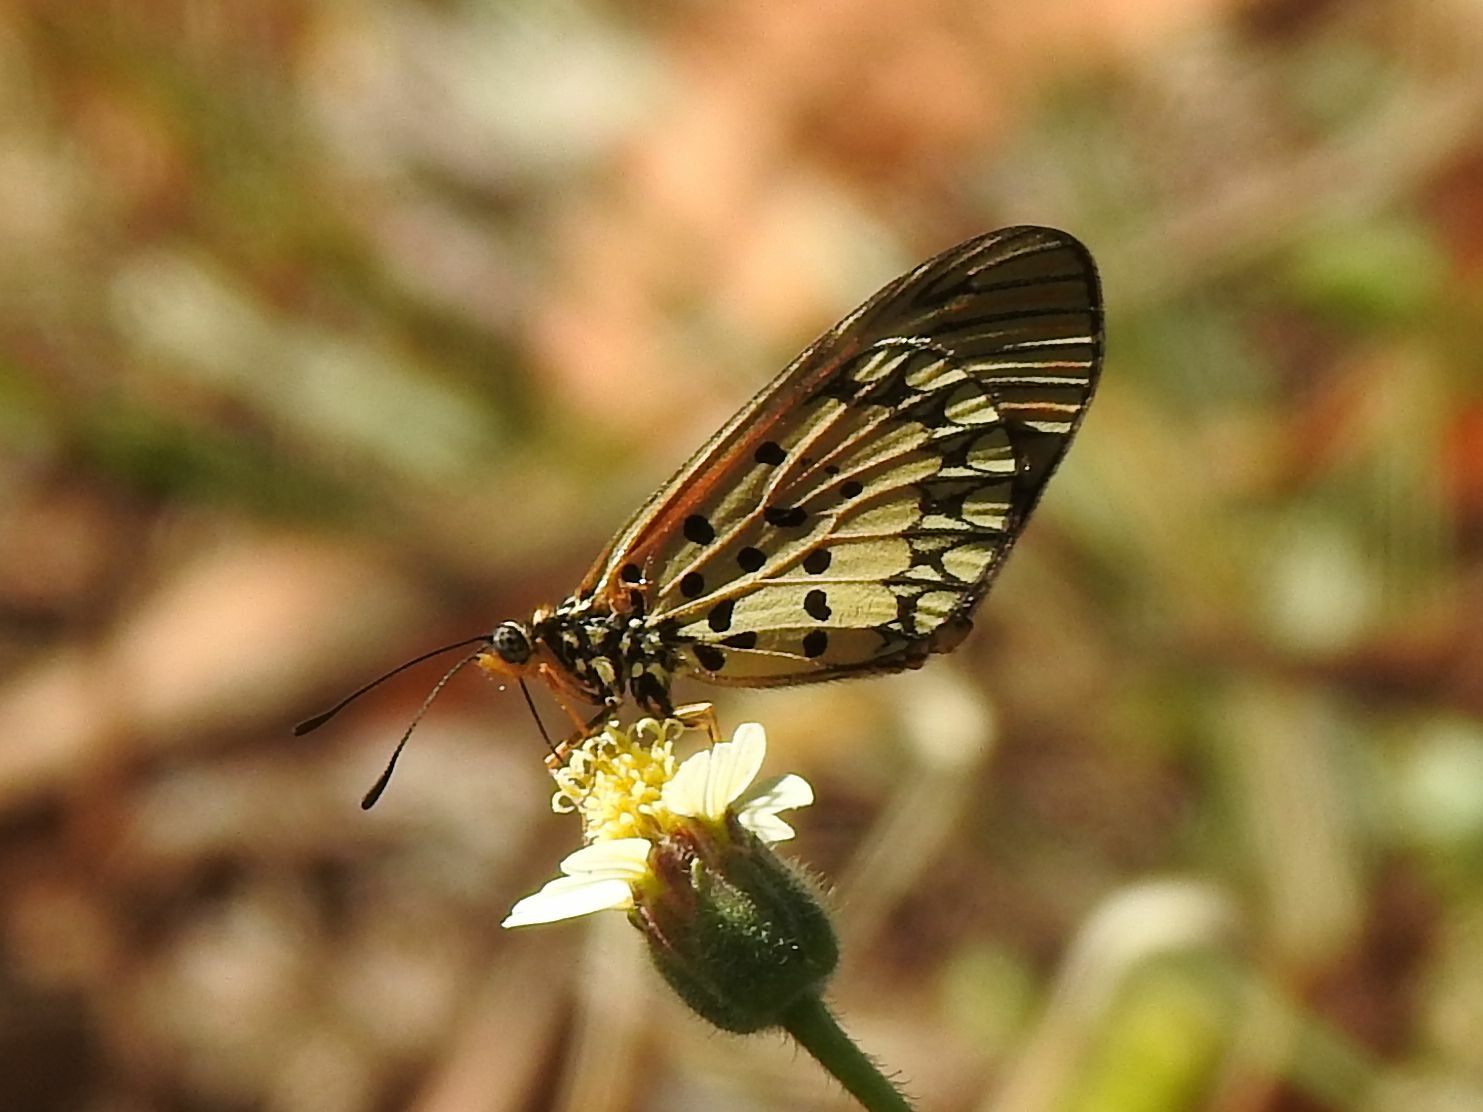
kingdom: Animalia
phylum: Arthropoda
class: Insecta
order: Lepidoptera
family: Nymphalidae
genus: Acraea
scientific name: Acraea Telchinia serena
